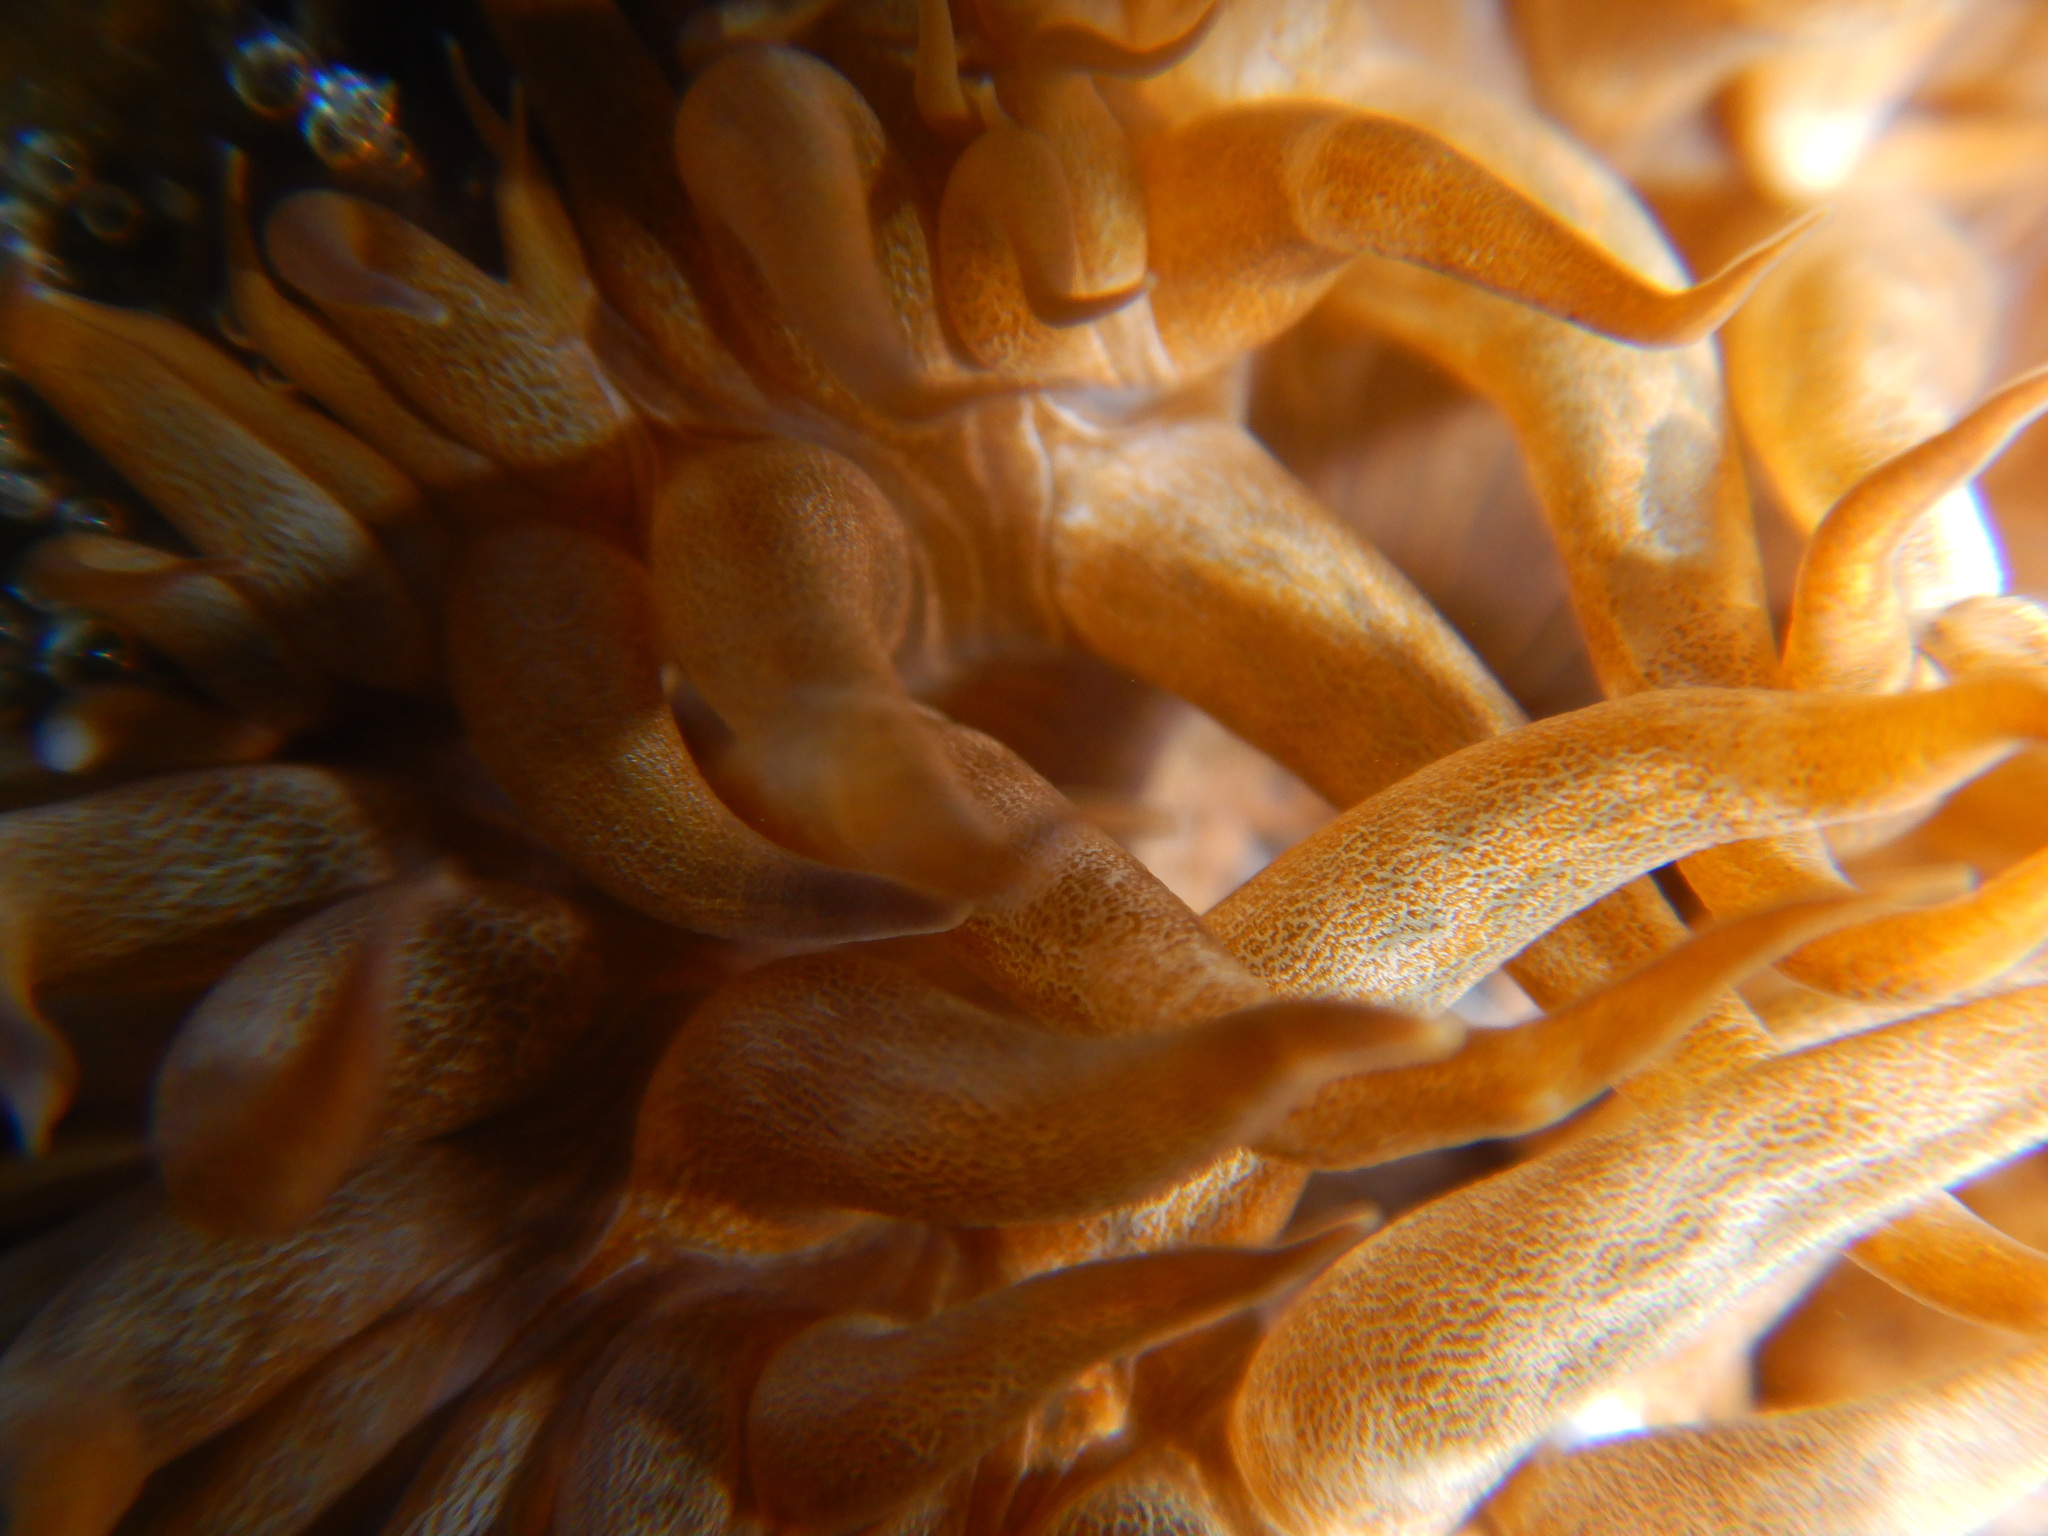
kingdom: Animalia
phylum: Cnidaria
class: Anthozoa
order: Actiniaria
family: Aiptasiidae
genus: Aiptasia
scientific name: Aiptasia mutabilis
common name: Trumpet anemone
